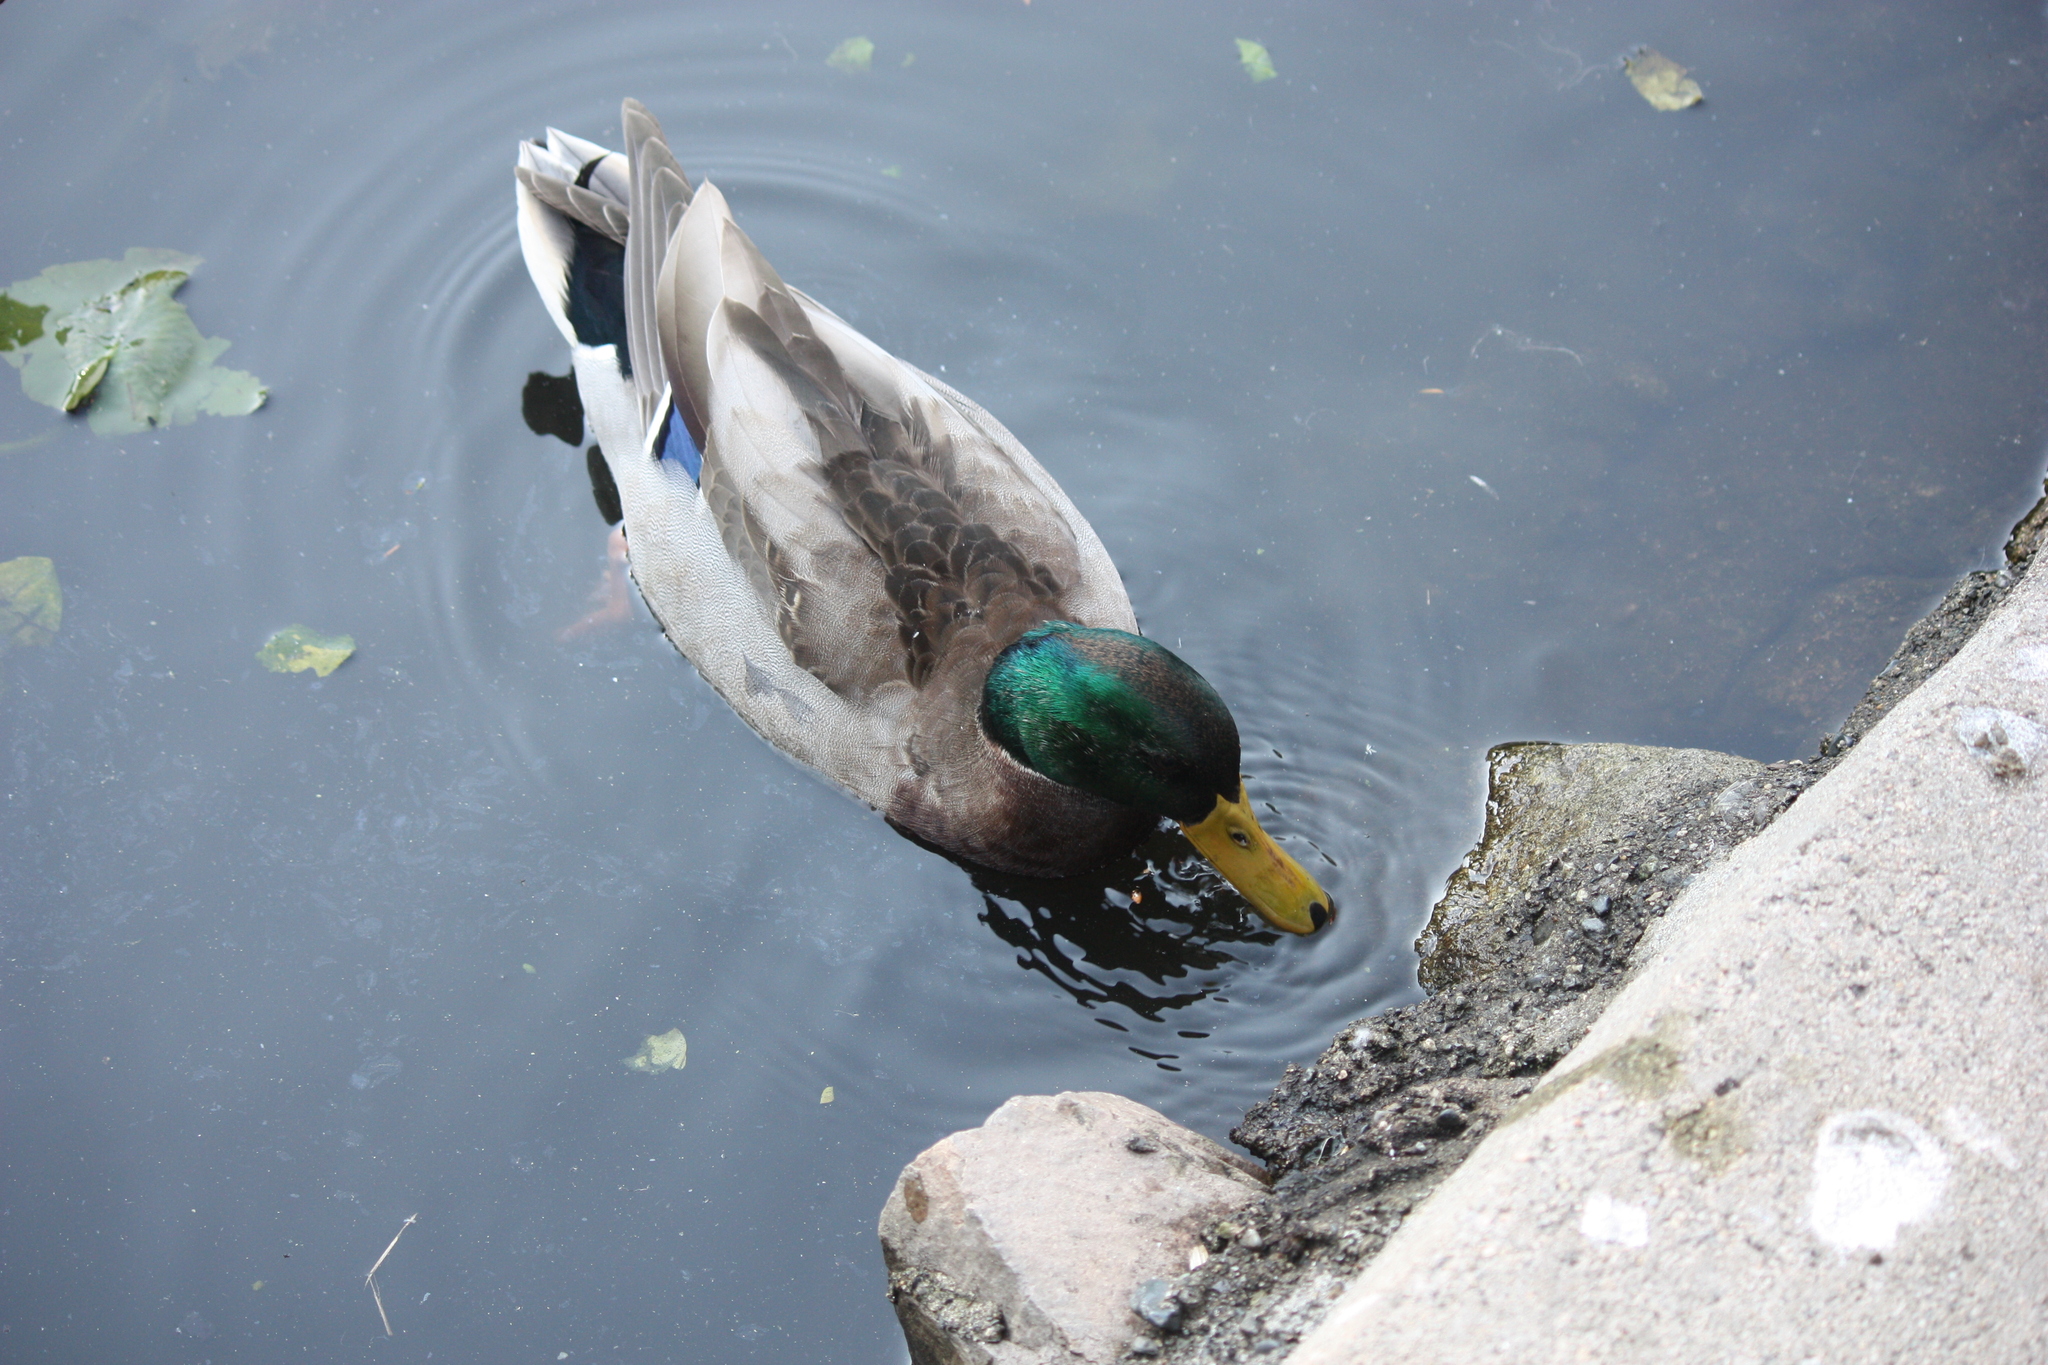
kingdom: Animalia
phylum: Chordata
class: Aves
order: Anseriformes
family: Anatidae
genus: Anas
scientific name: Anas platyrhynchos
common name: Mallard
